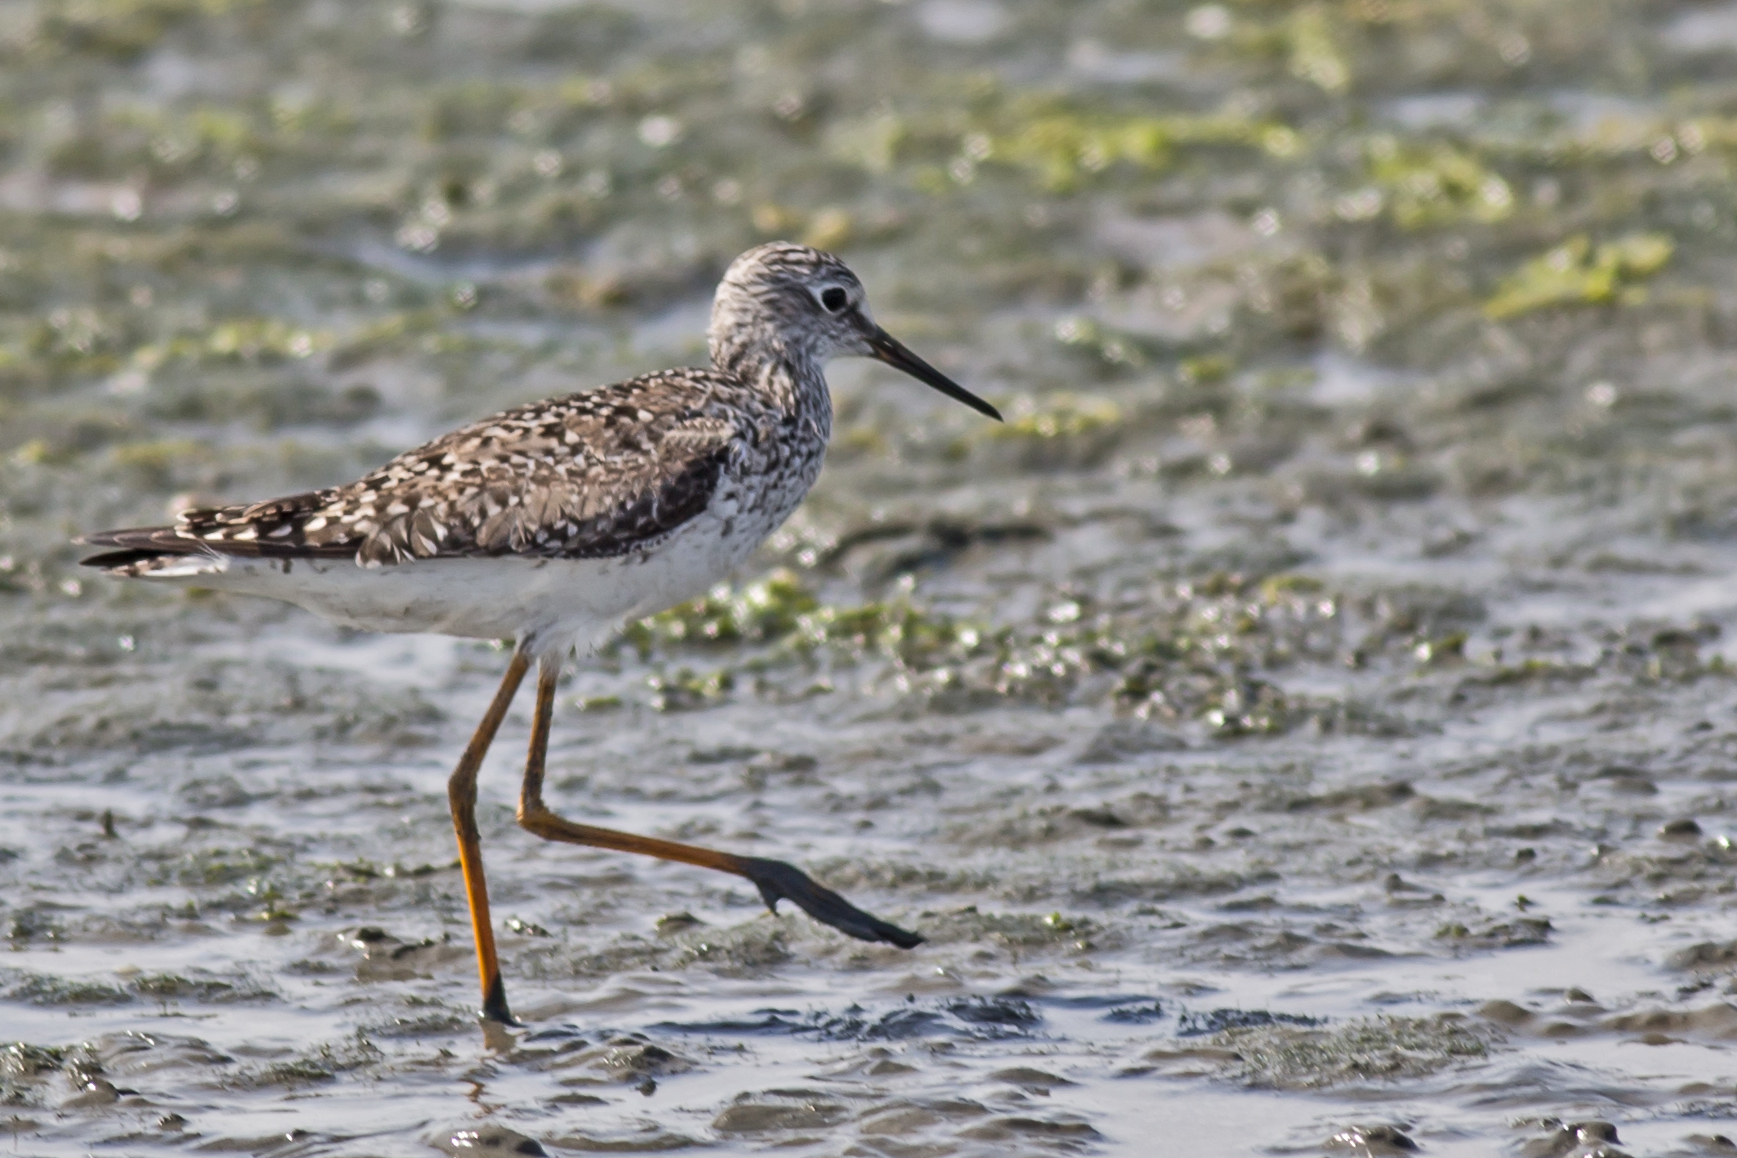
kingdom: Animalia
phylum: Chordata
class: Aves
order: Charadriiformes
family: Scolopacidae
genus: Tringa
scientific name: Tringa flavipes
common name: Lesser yellowlegs
